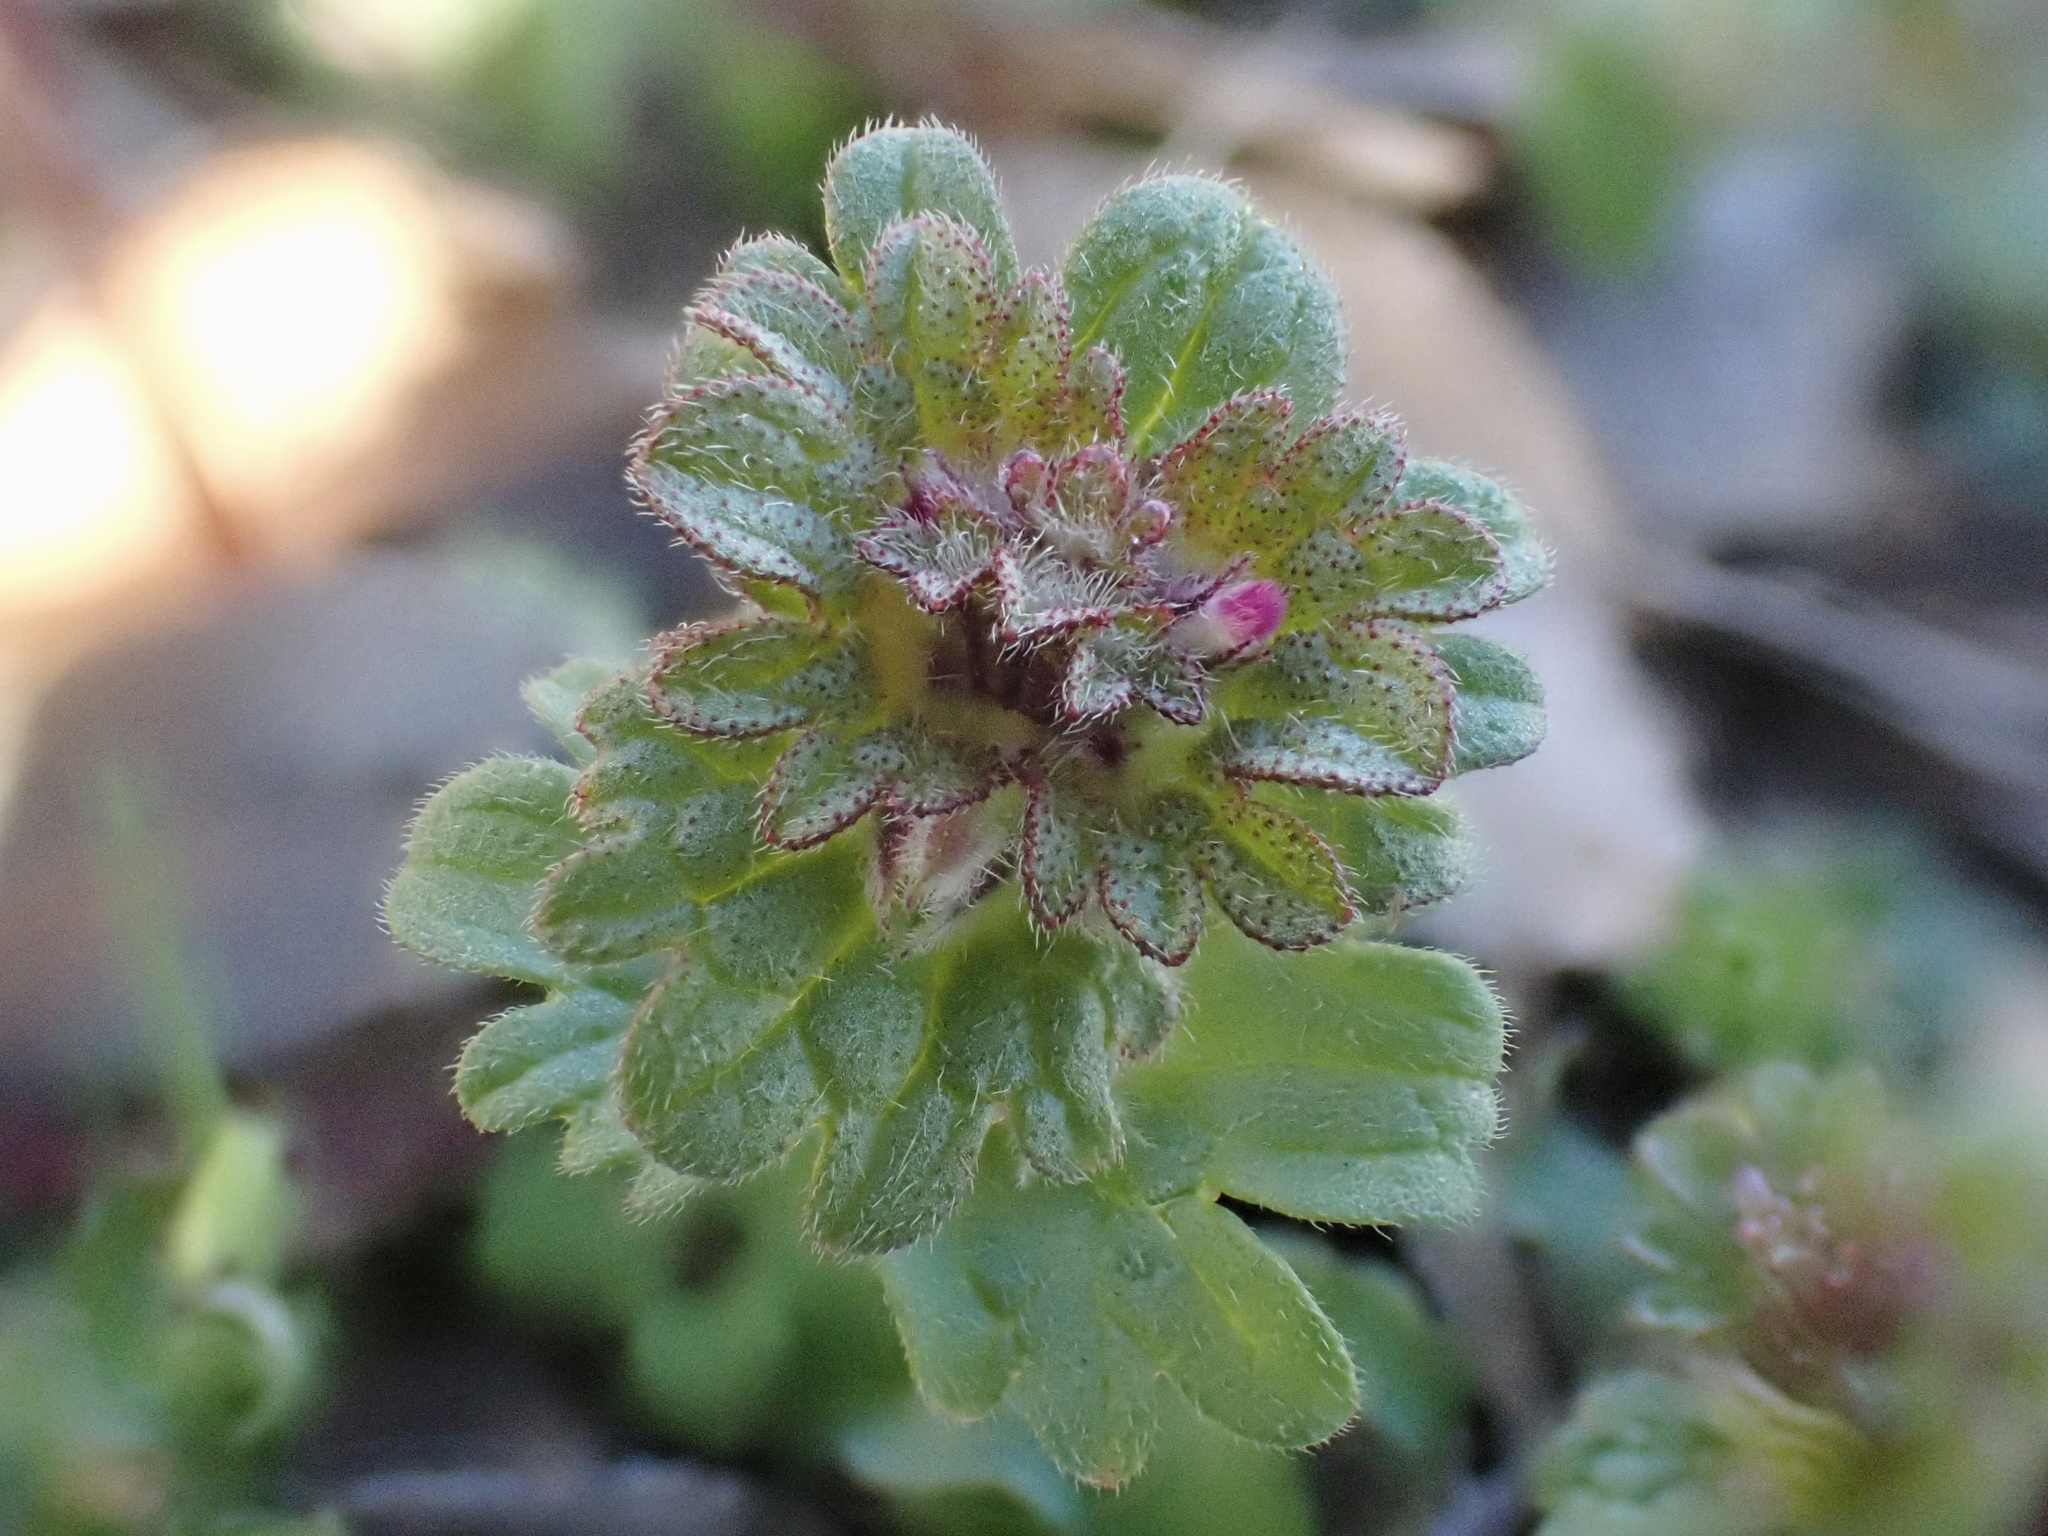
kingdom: Plantae
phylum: Tracheophyta
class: Magnoliopsida
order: Lamiales
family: Lamiaceae
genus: Lamium
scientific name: Lamium amplexicaule
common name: Henbit dead-nettle
